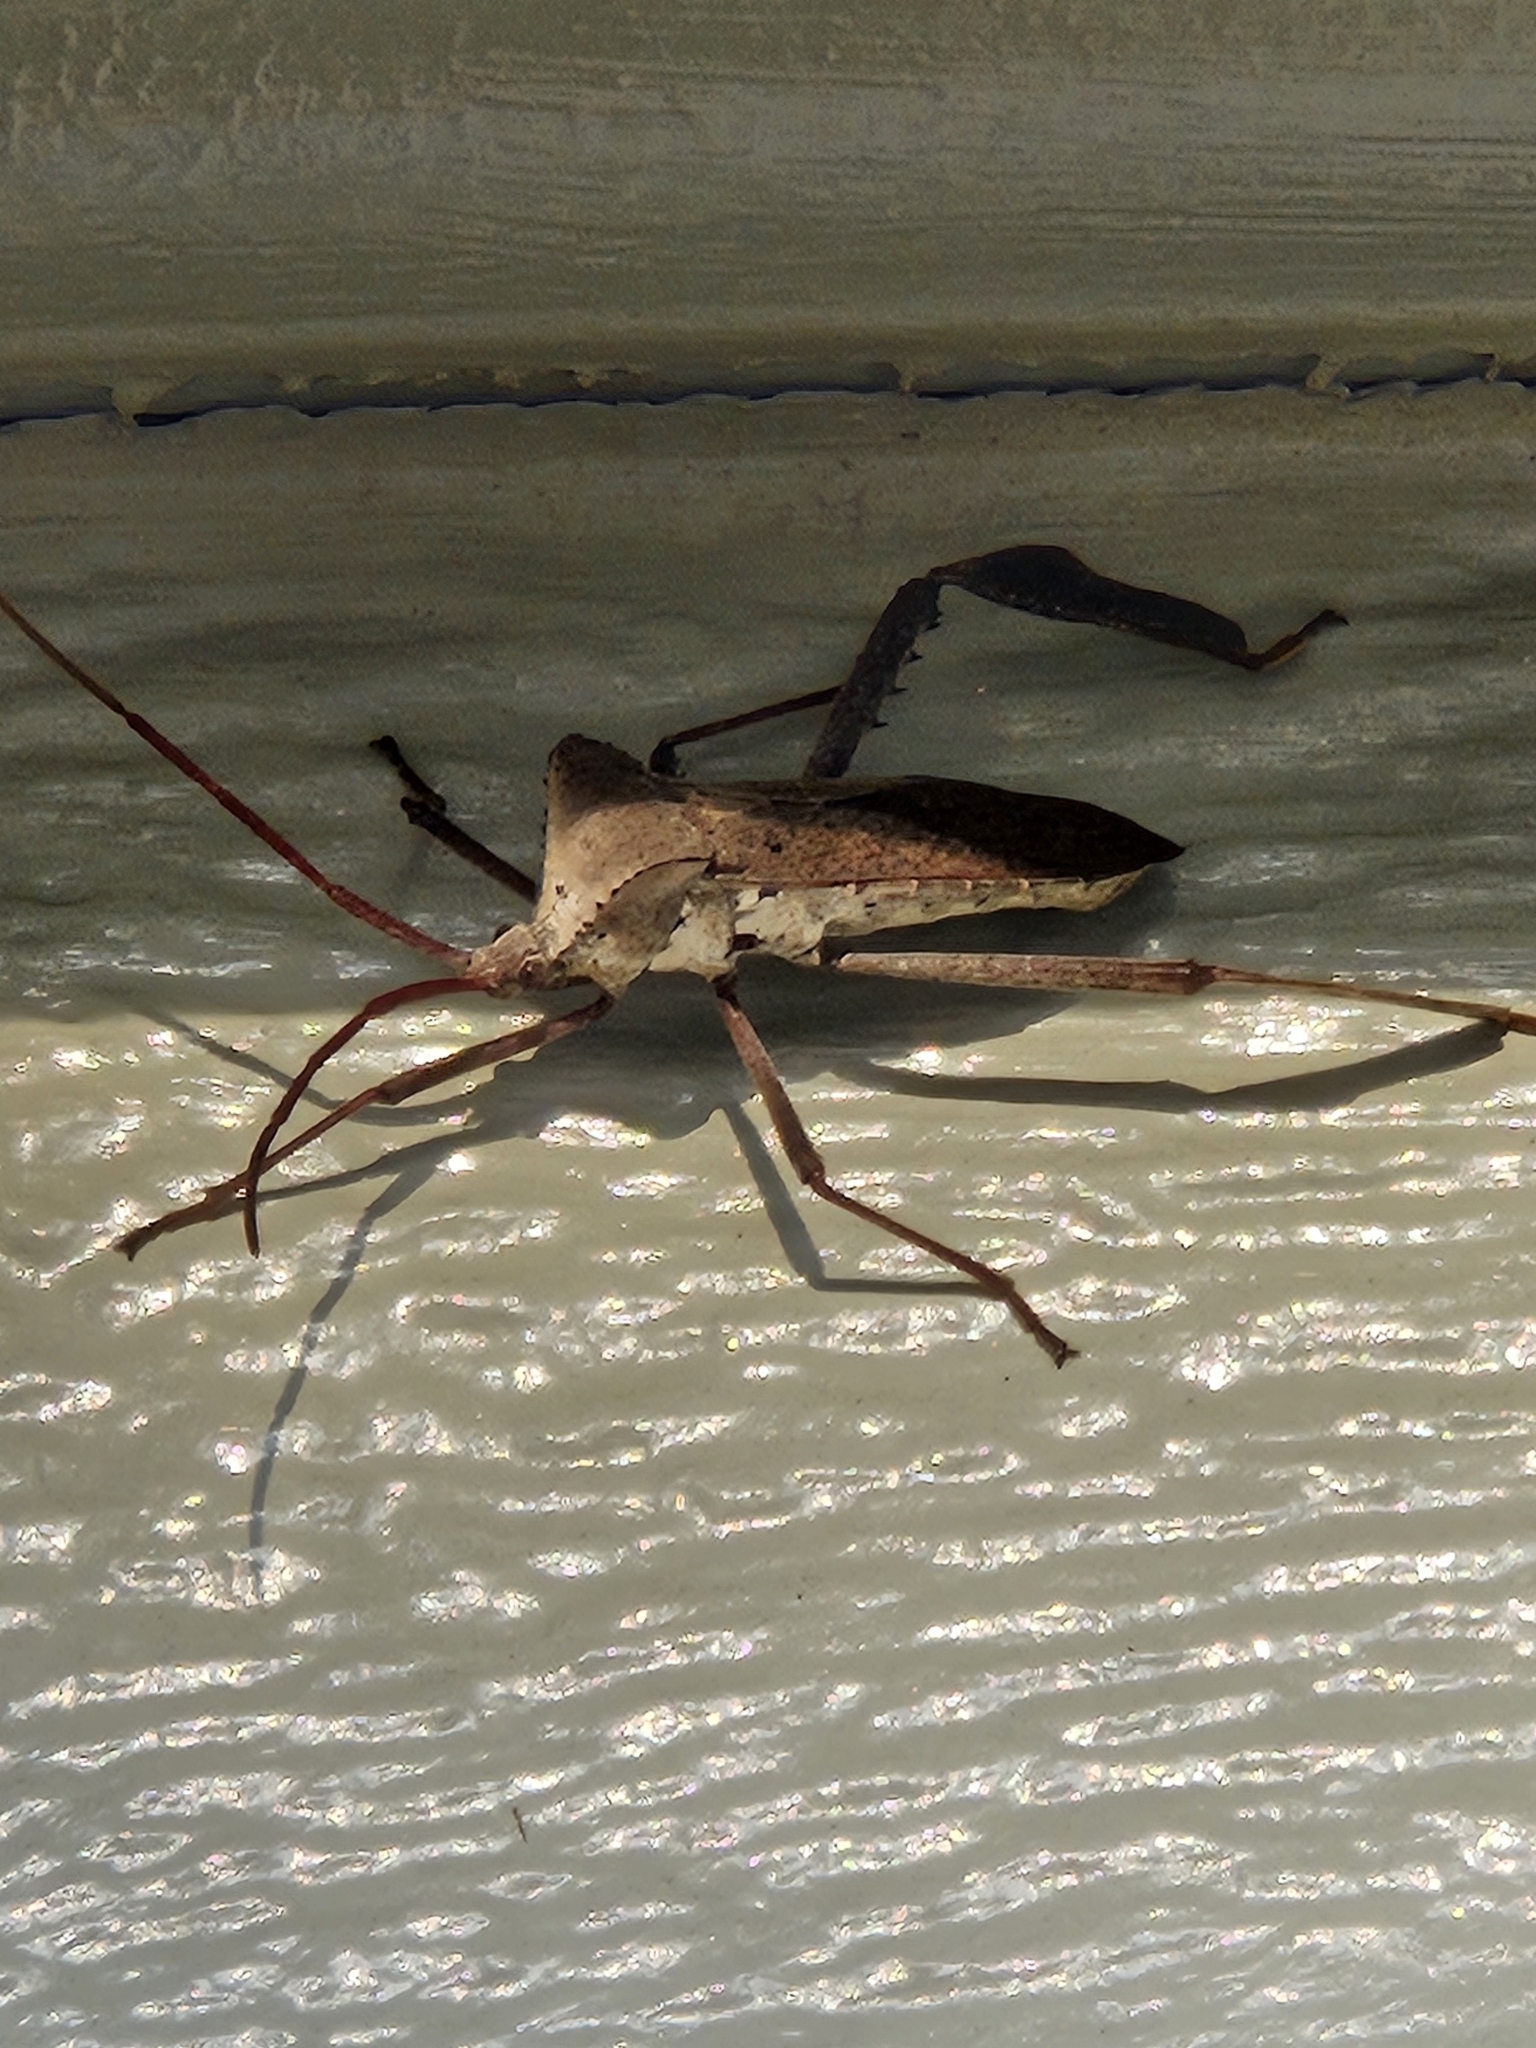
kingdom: Animalia
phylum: Arthropoda
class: Insecta
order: Hemiptera
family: Coreidae
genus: Acanthocephala
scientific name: Acanthocephala declivis
